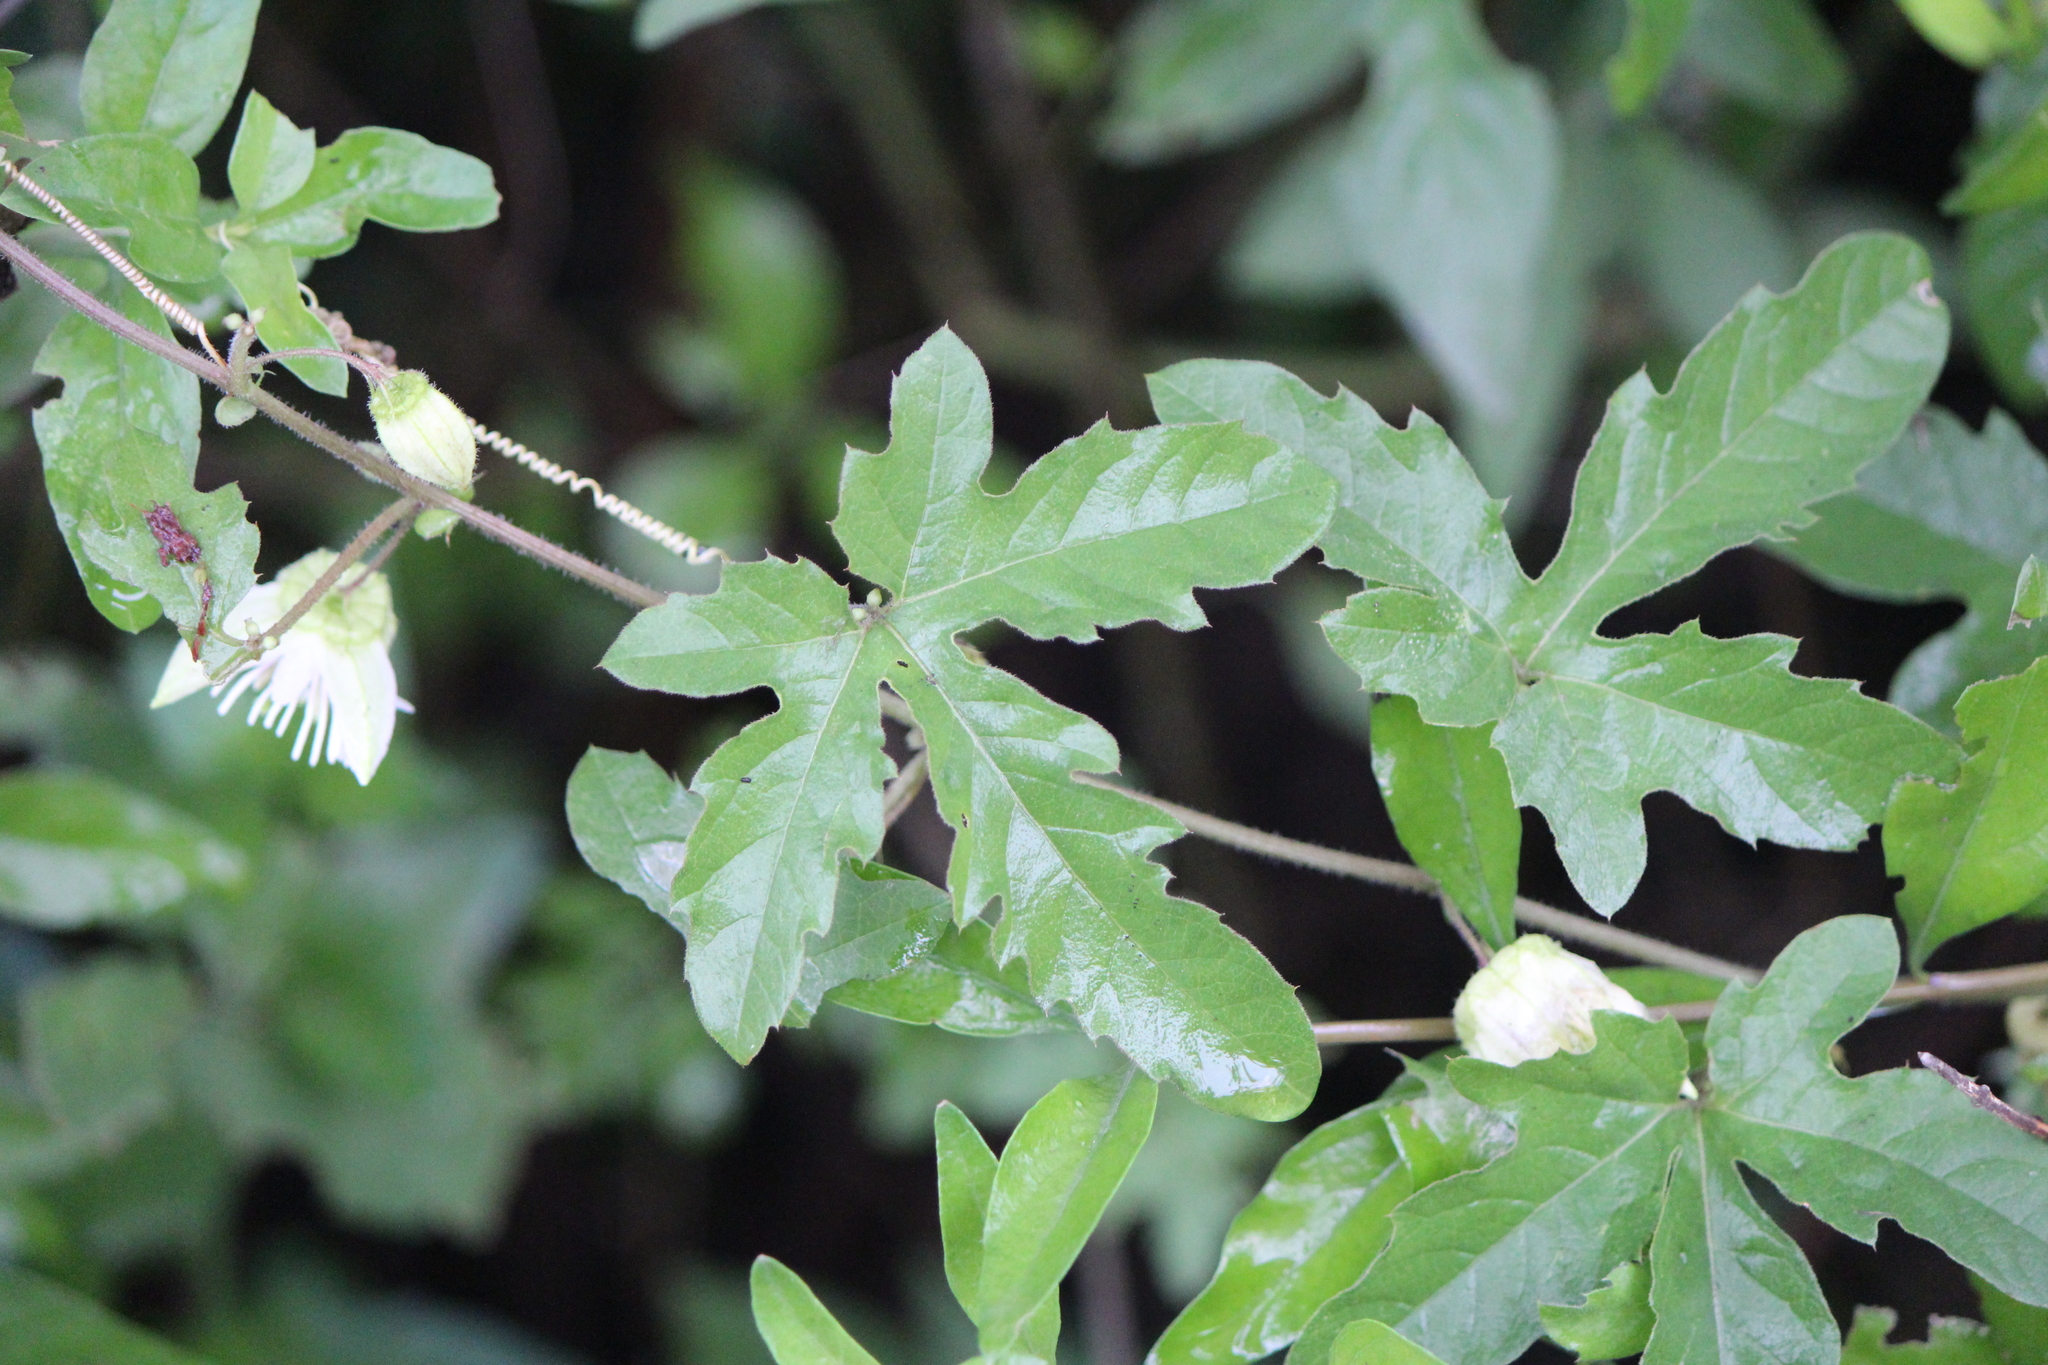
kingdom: Plantae
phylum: Tracheophyta
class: Magnoliopsida
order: Malpighiales
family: Passifloraceae
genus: Passiflora
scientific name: Passiflora bryonioides
